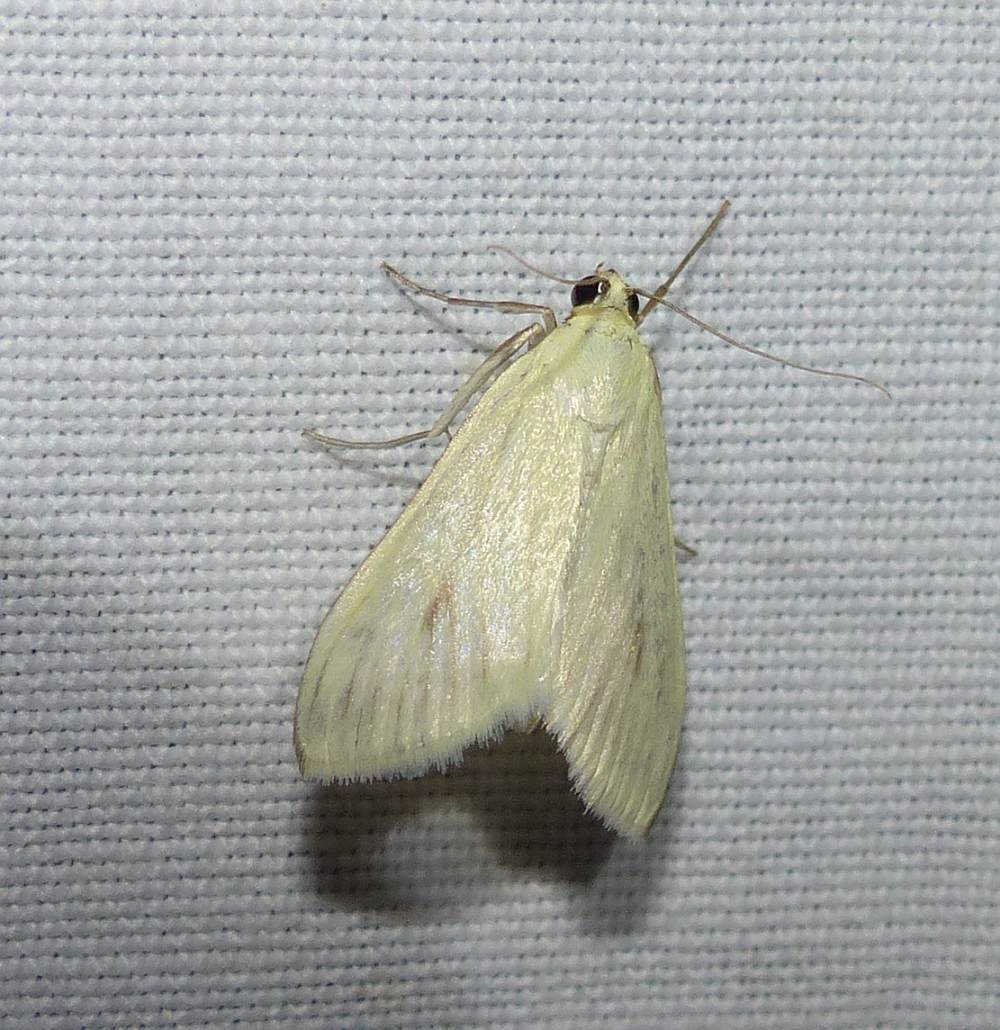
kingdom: Animalia
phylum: Arthropoda
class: Insecta
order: Lepidoptera
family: Crambidae
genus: Sitochroa
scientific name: Sitochroa palealis
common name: Greenish-yellow sitochroa moth
